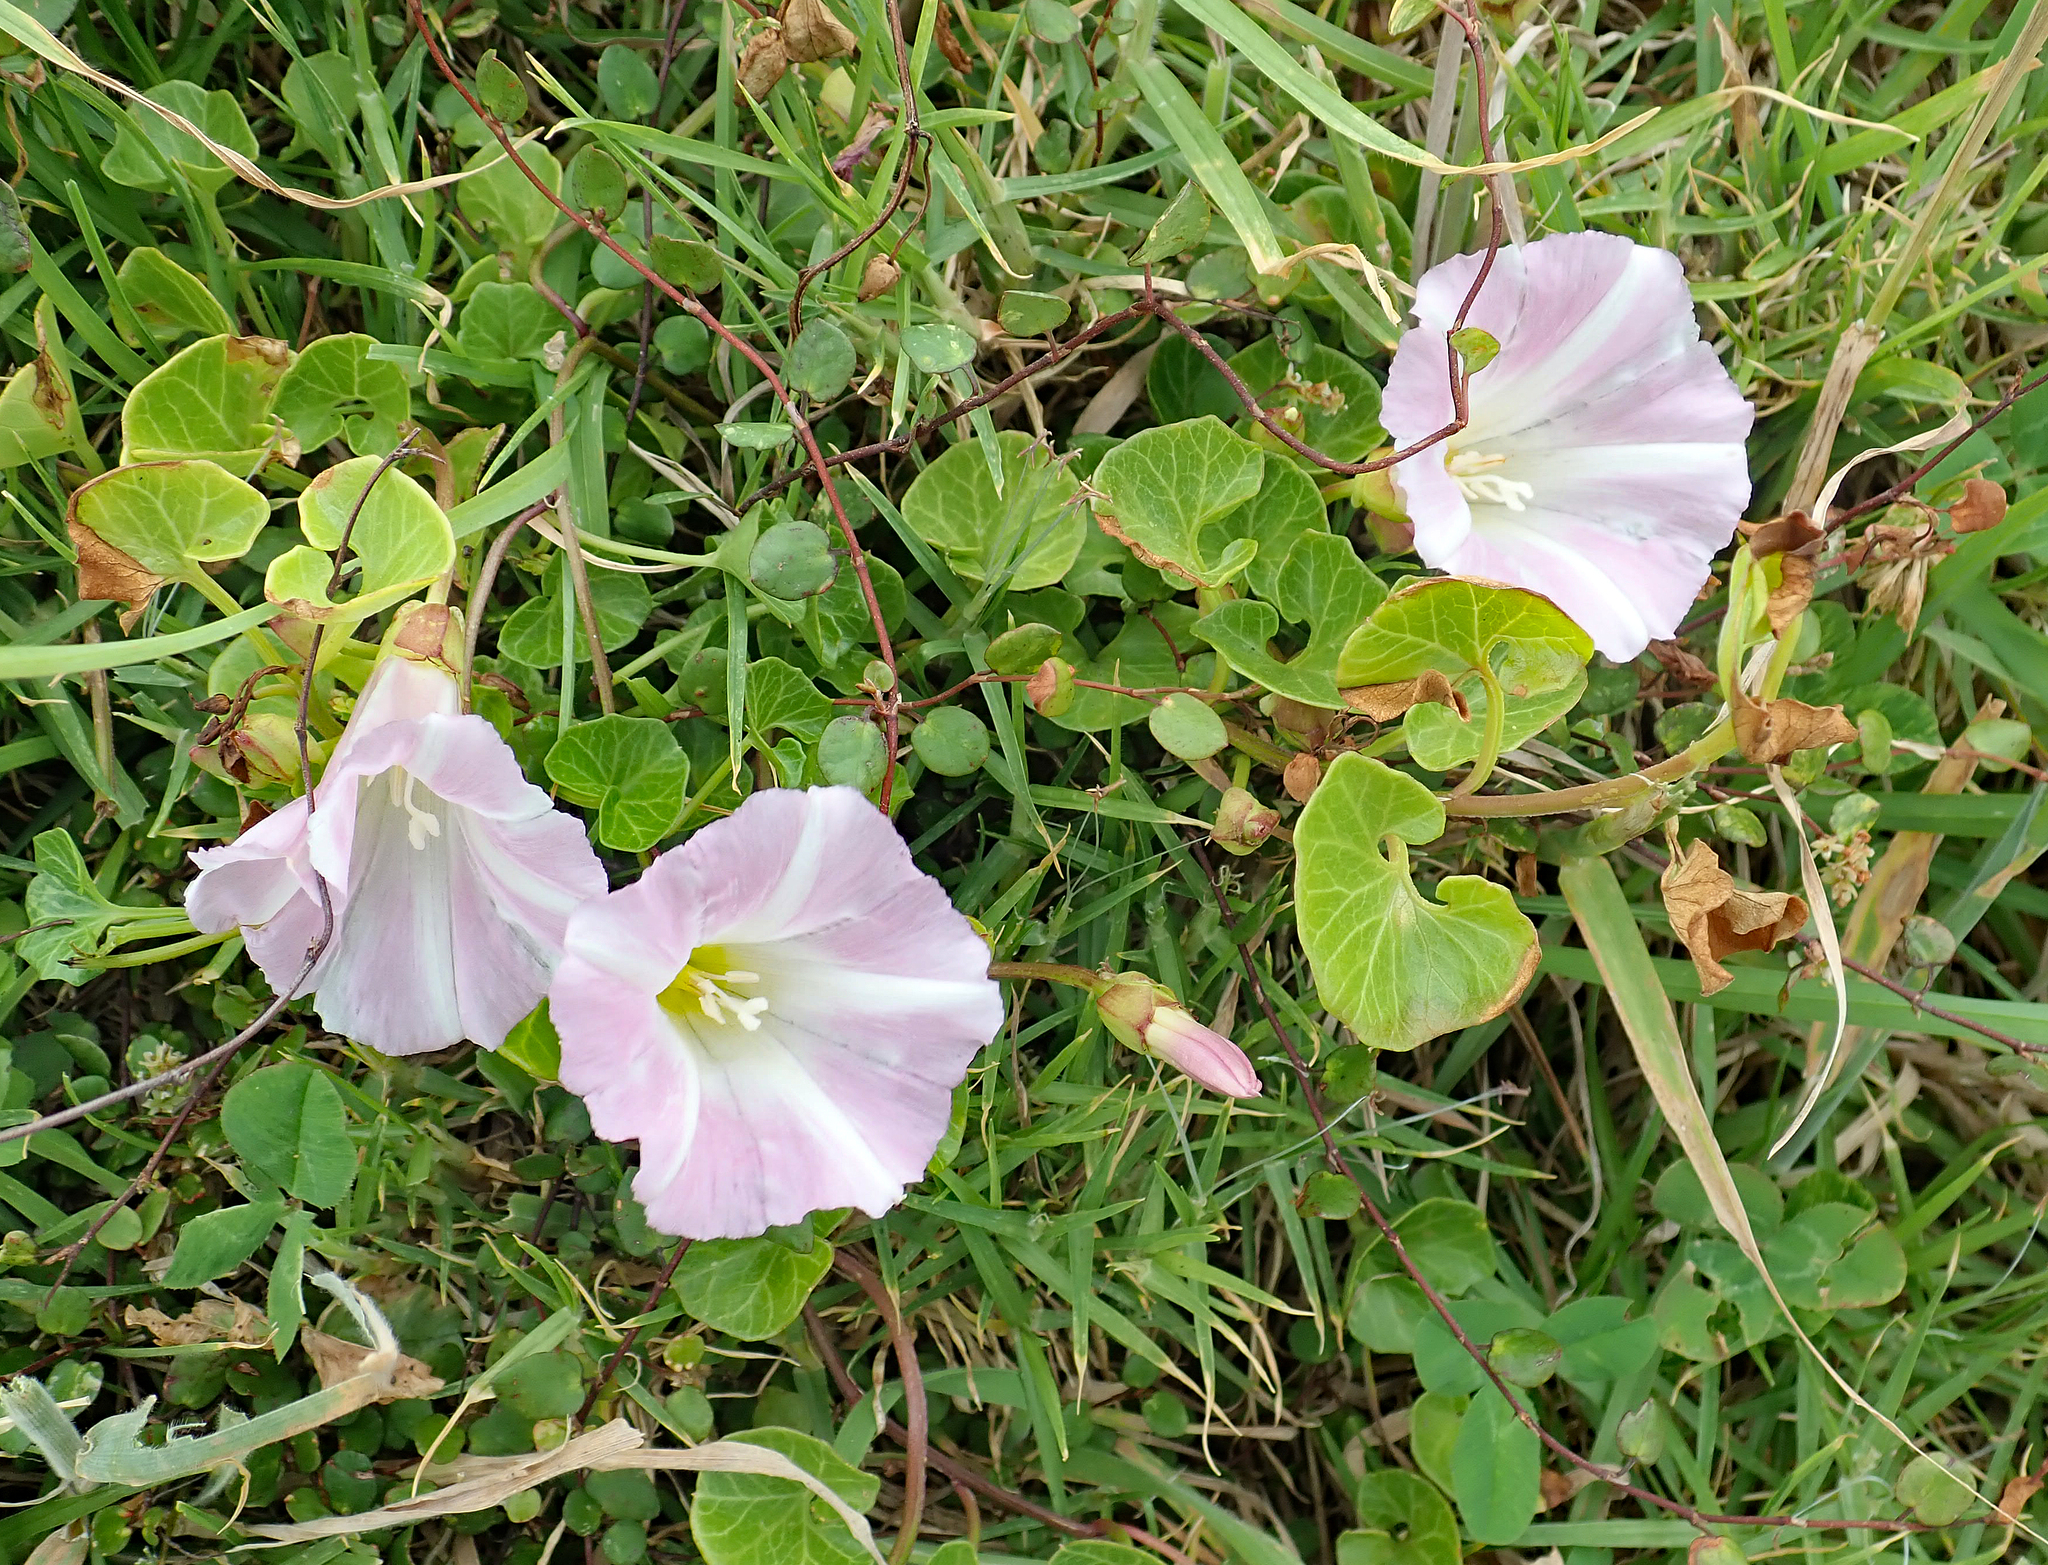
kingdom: Plantae
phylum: Tracheophyta
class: Magnoliopsida
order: Solanales
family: Convolvulaceae
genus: Calystegia
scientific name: Calystegia soldanella
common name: Sea bindweed
